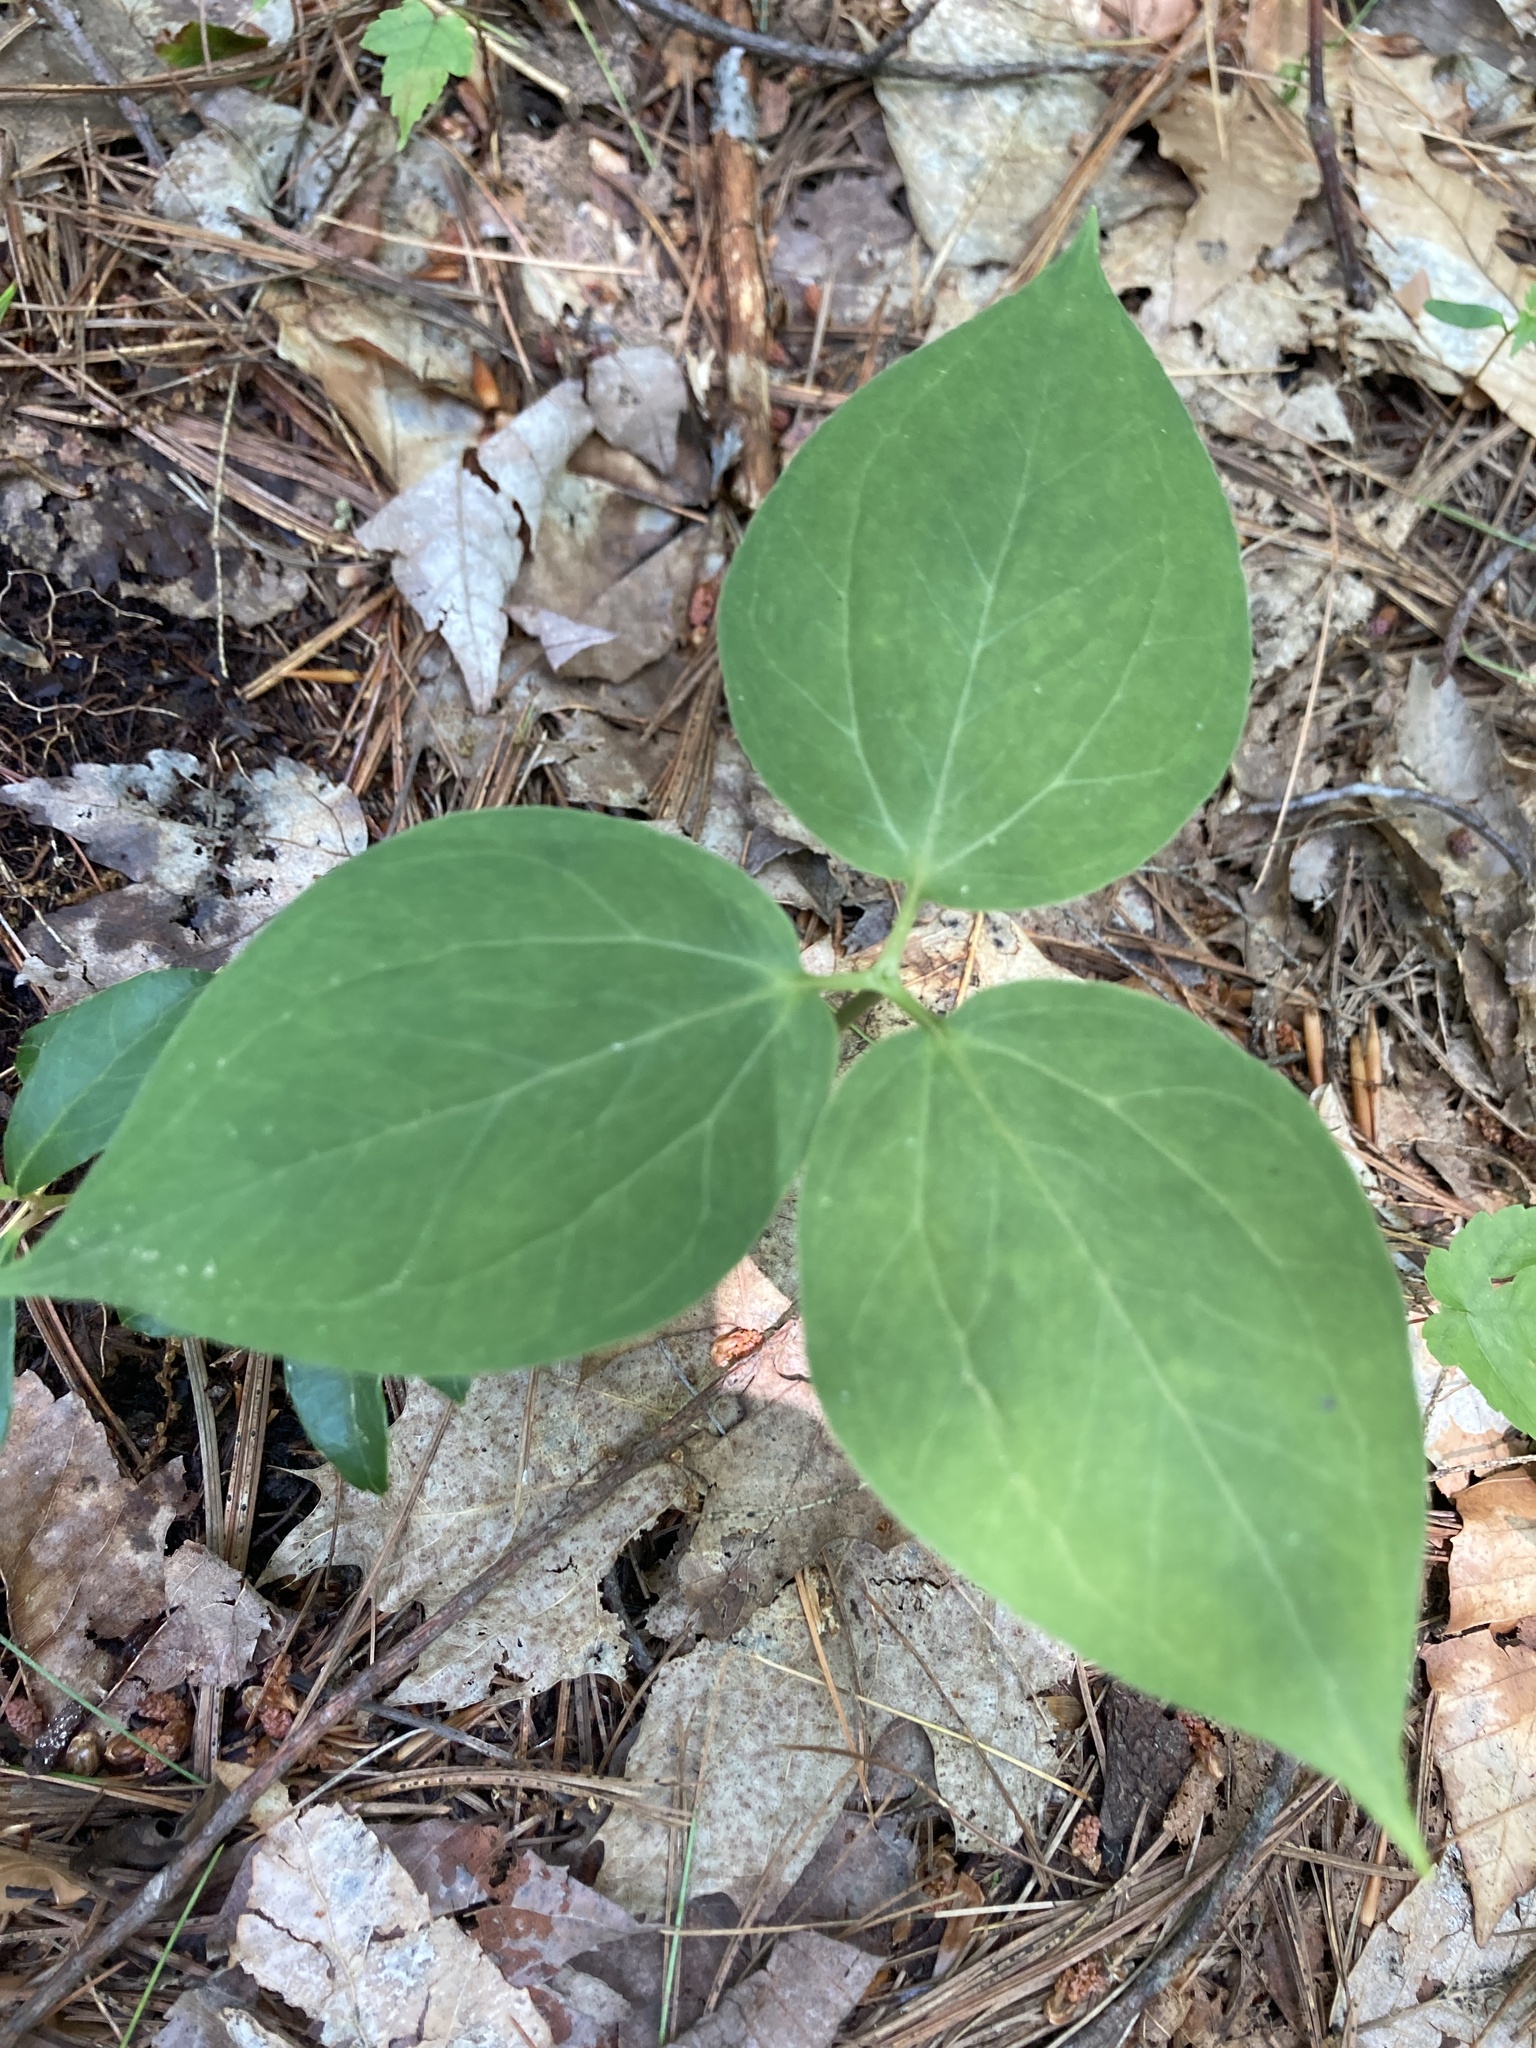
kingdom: Plantae
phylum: Tracheophyta
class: Liliopsida
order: Liliales
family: Melanthiaceae
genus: Trillium
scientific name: Trillium undulatum
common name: Paint trillium
